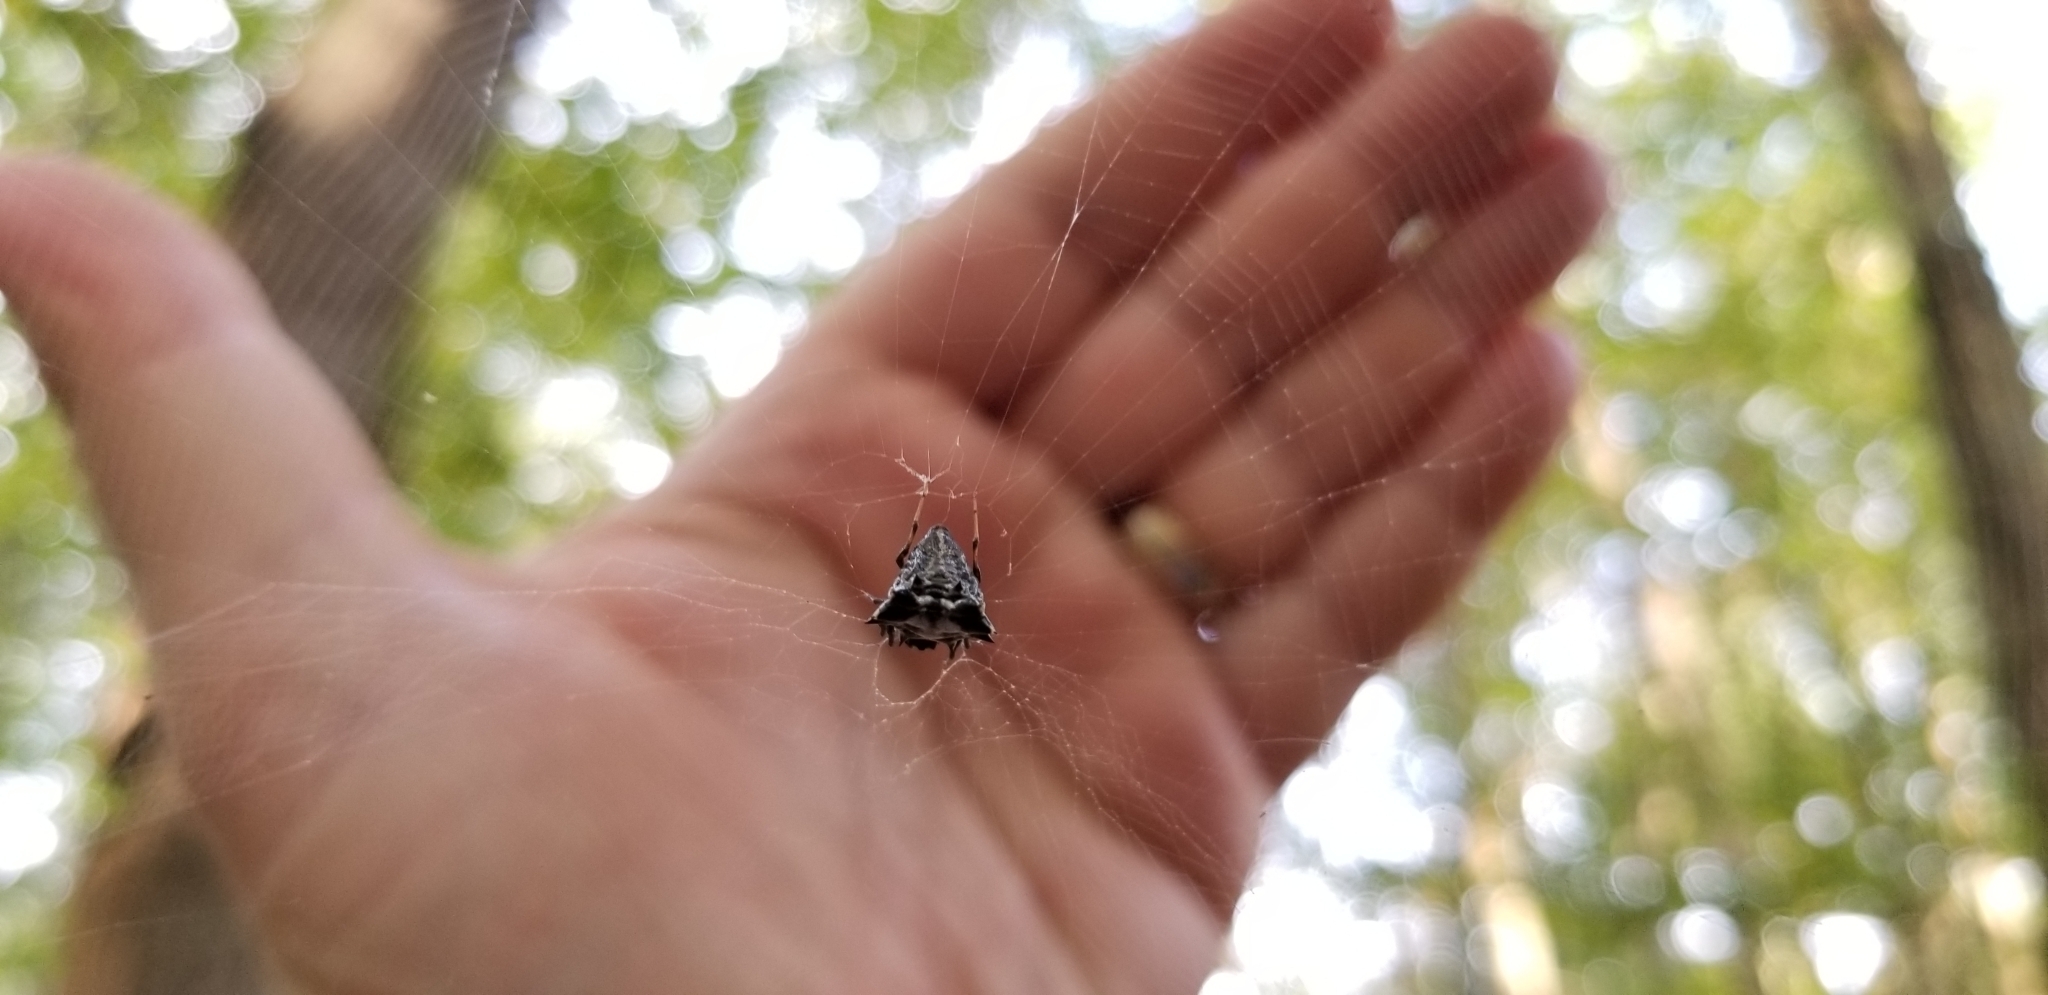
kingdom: Animalia
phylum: Arthropoda
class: Arachnida
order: Araneae
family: Araneidae
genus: Micrathena
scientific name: Micrathena gracilis
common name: Orb weavers
